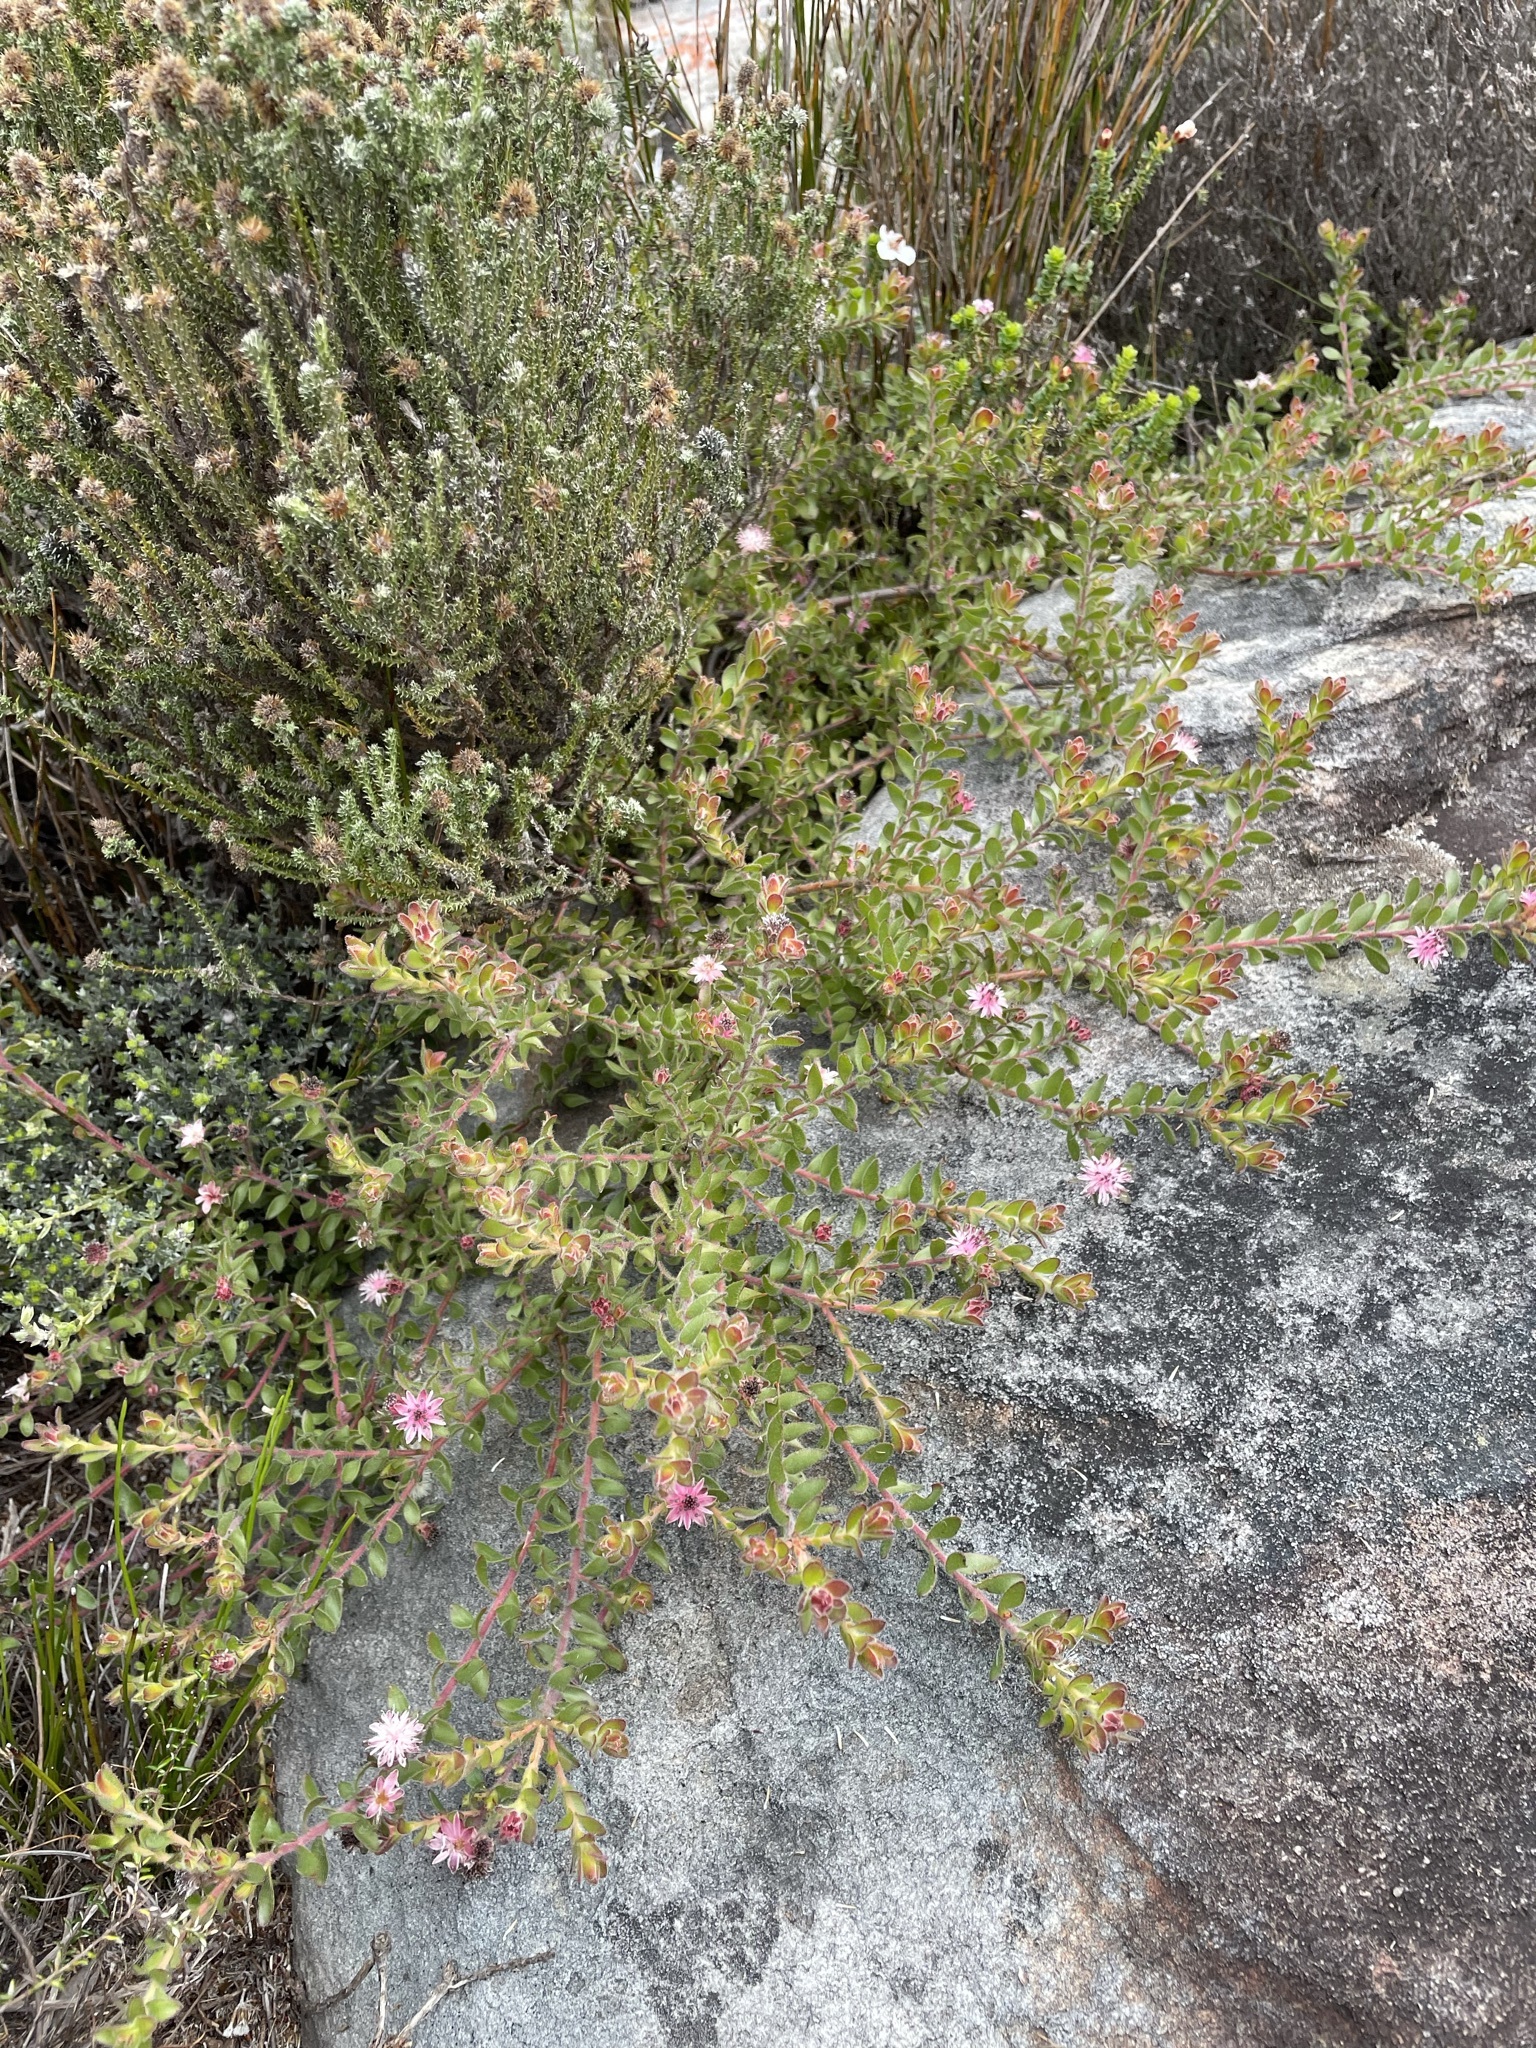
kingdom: Plantae
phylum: Tracheophyta
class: Magnoliopsida
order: Proteales
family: Proteaceae
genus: Diastella
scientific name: Diastella divaricata
